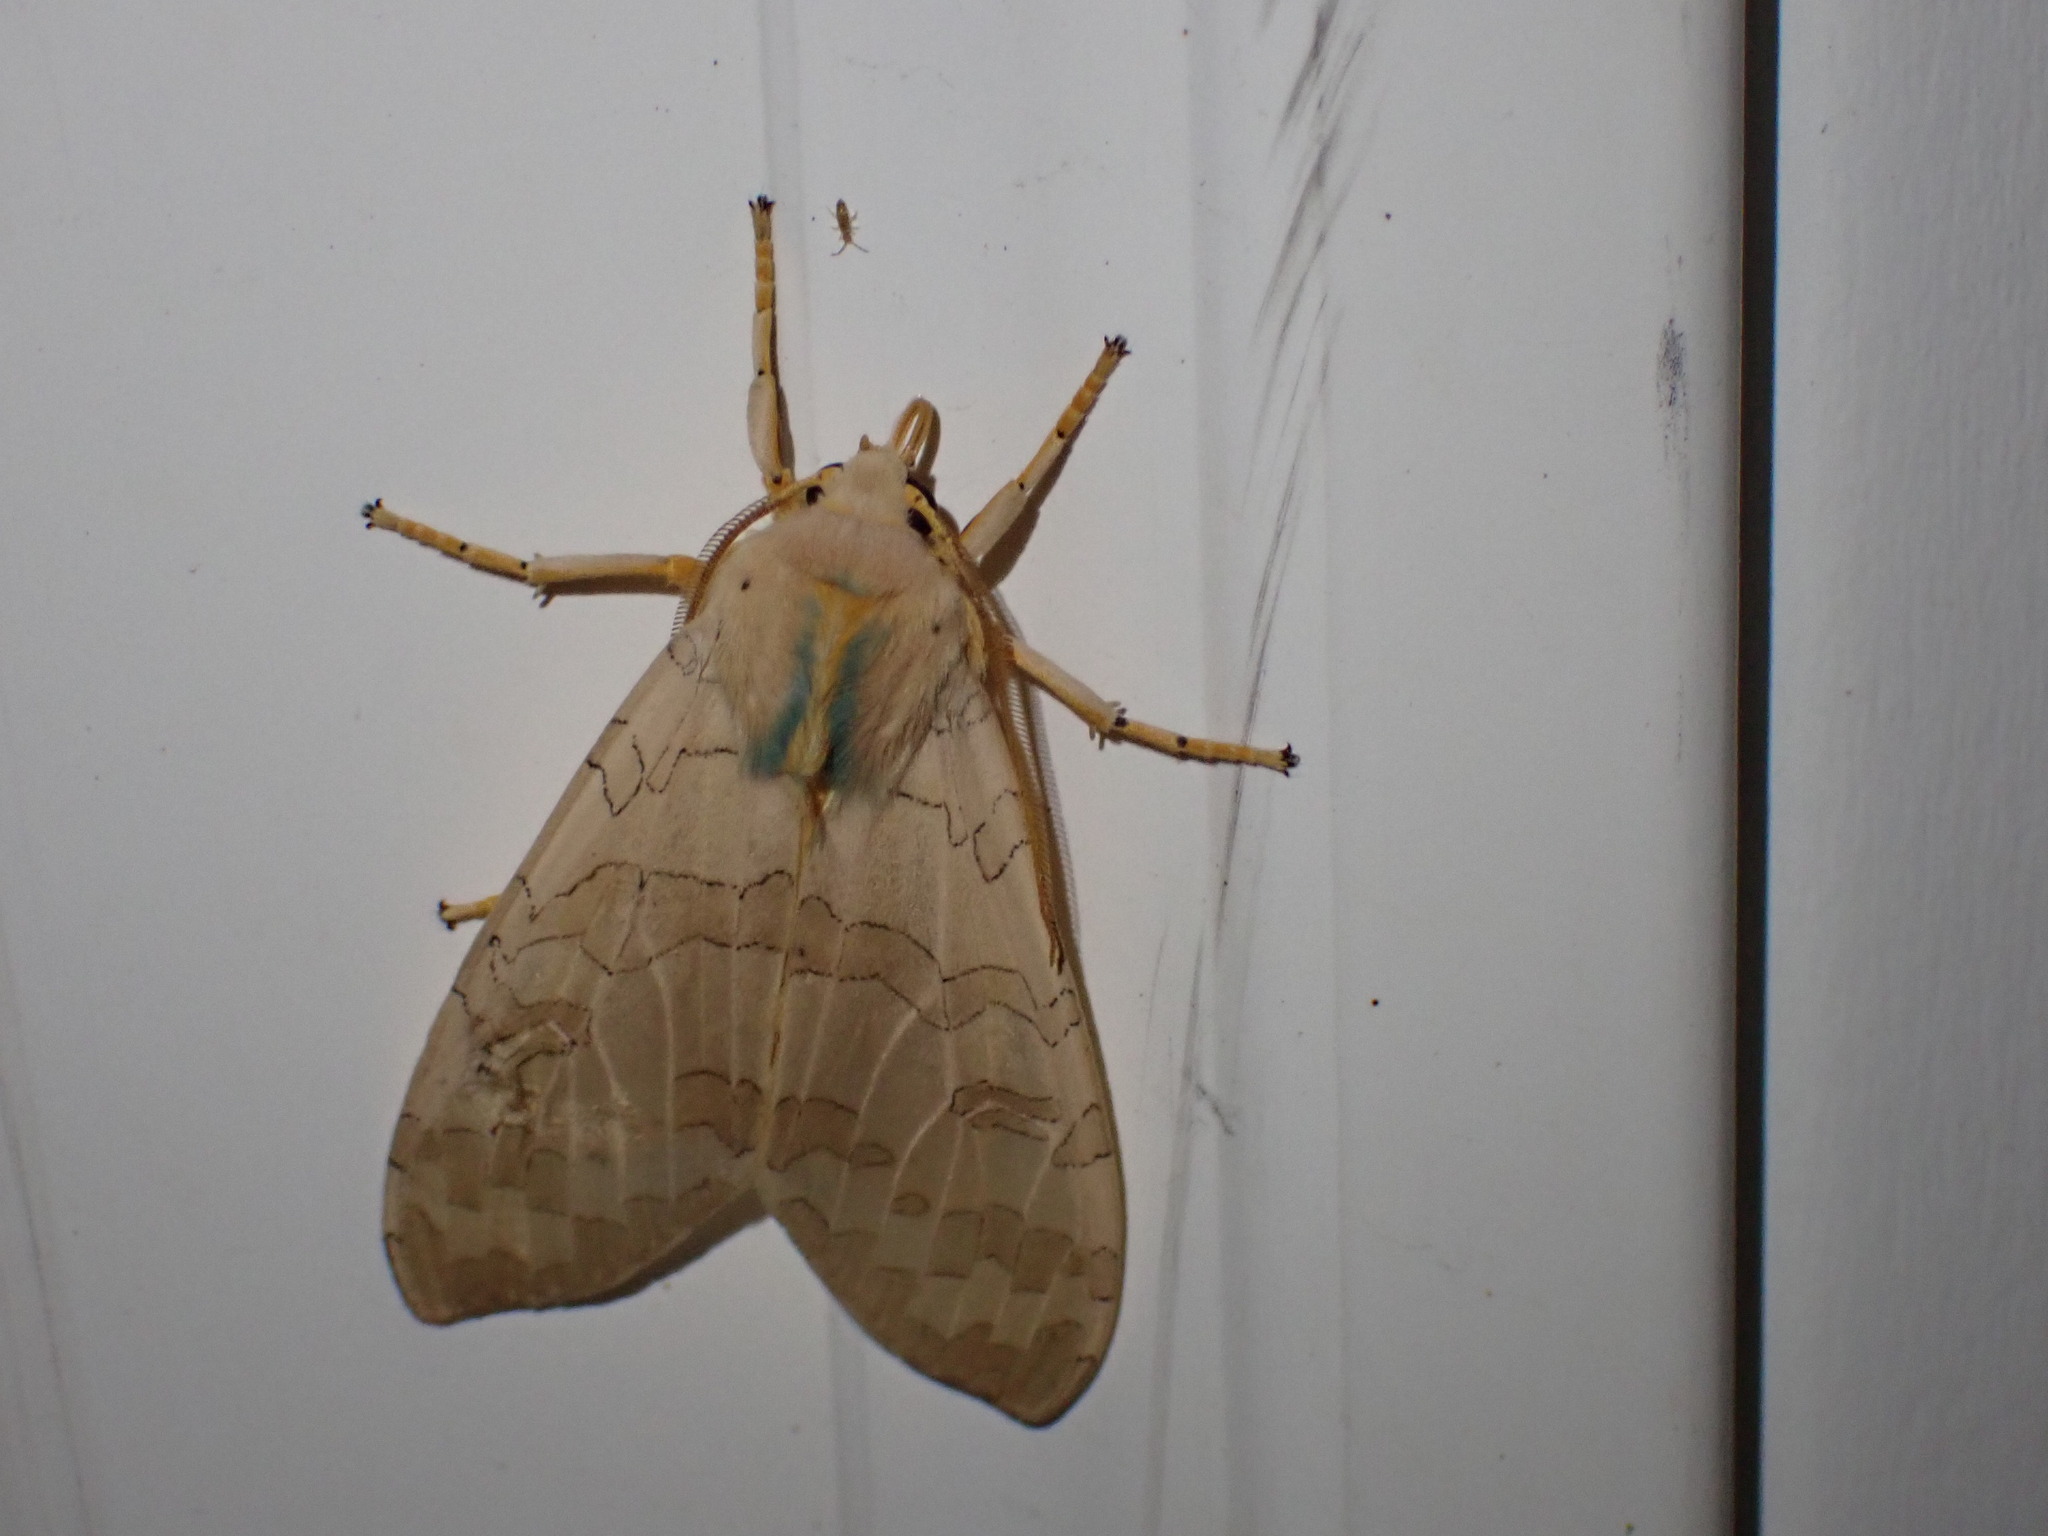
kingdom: Animalia
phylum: Arthropoda
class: Insecta
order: Lepidoptera
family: Erebidae
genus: Halysidota
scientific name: Halysidota
